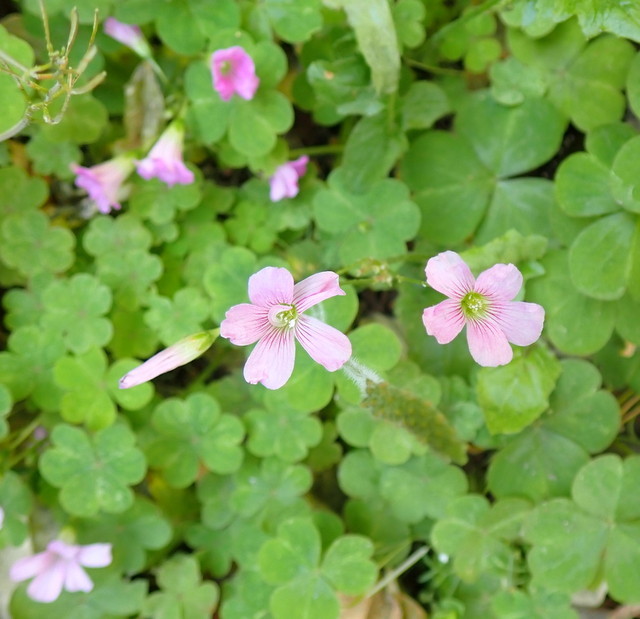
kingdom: Plantae
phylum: Tracheophyta
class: Magnoliopsida
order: Oxalidales
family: Oxalidaceae
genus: Oxalis
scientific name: Oxalis debilis
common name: Large-flowered pink-sorrel
